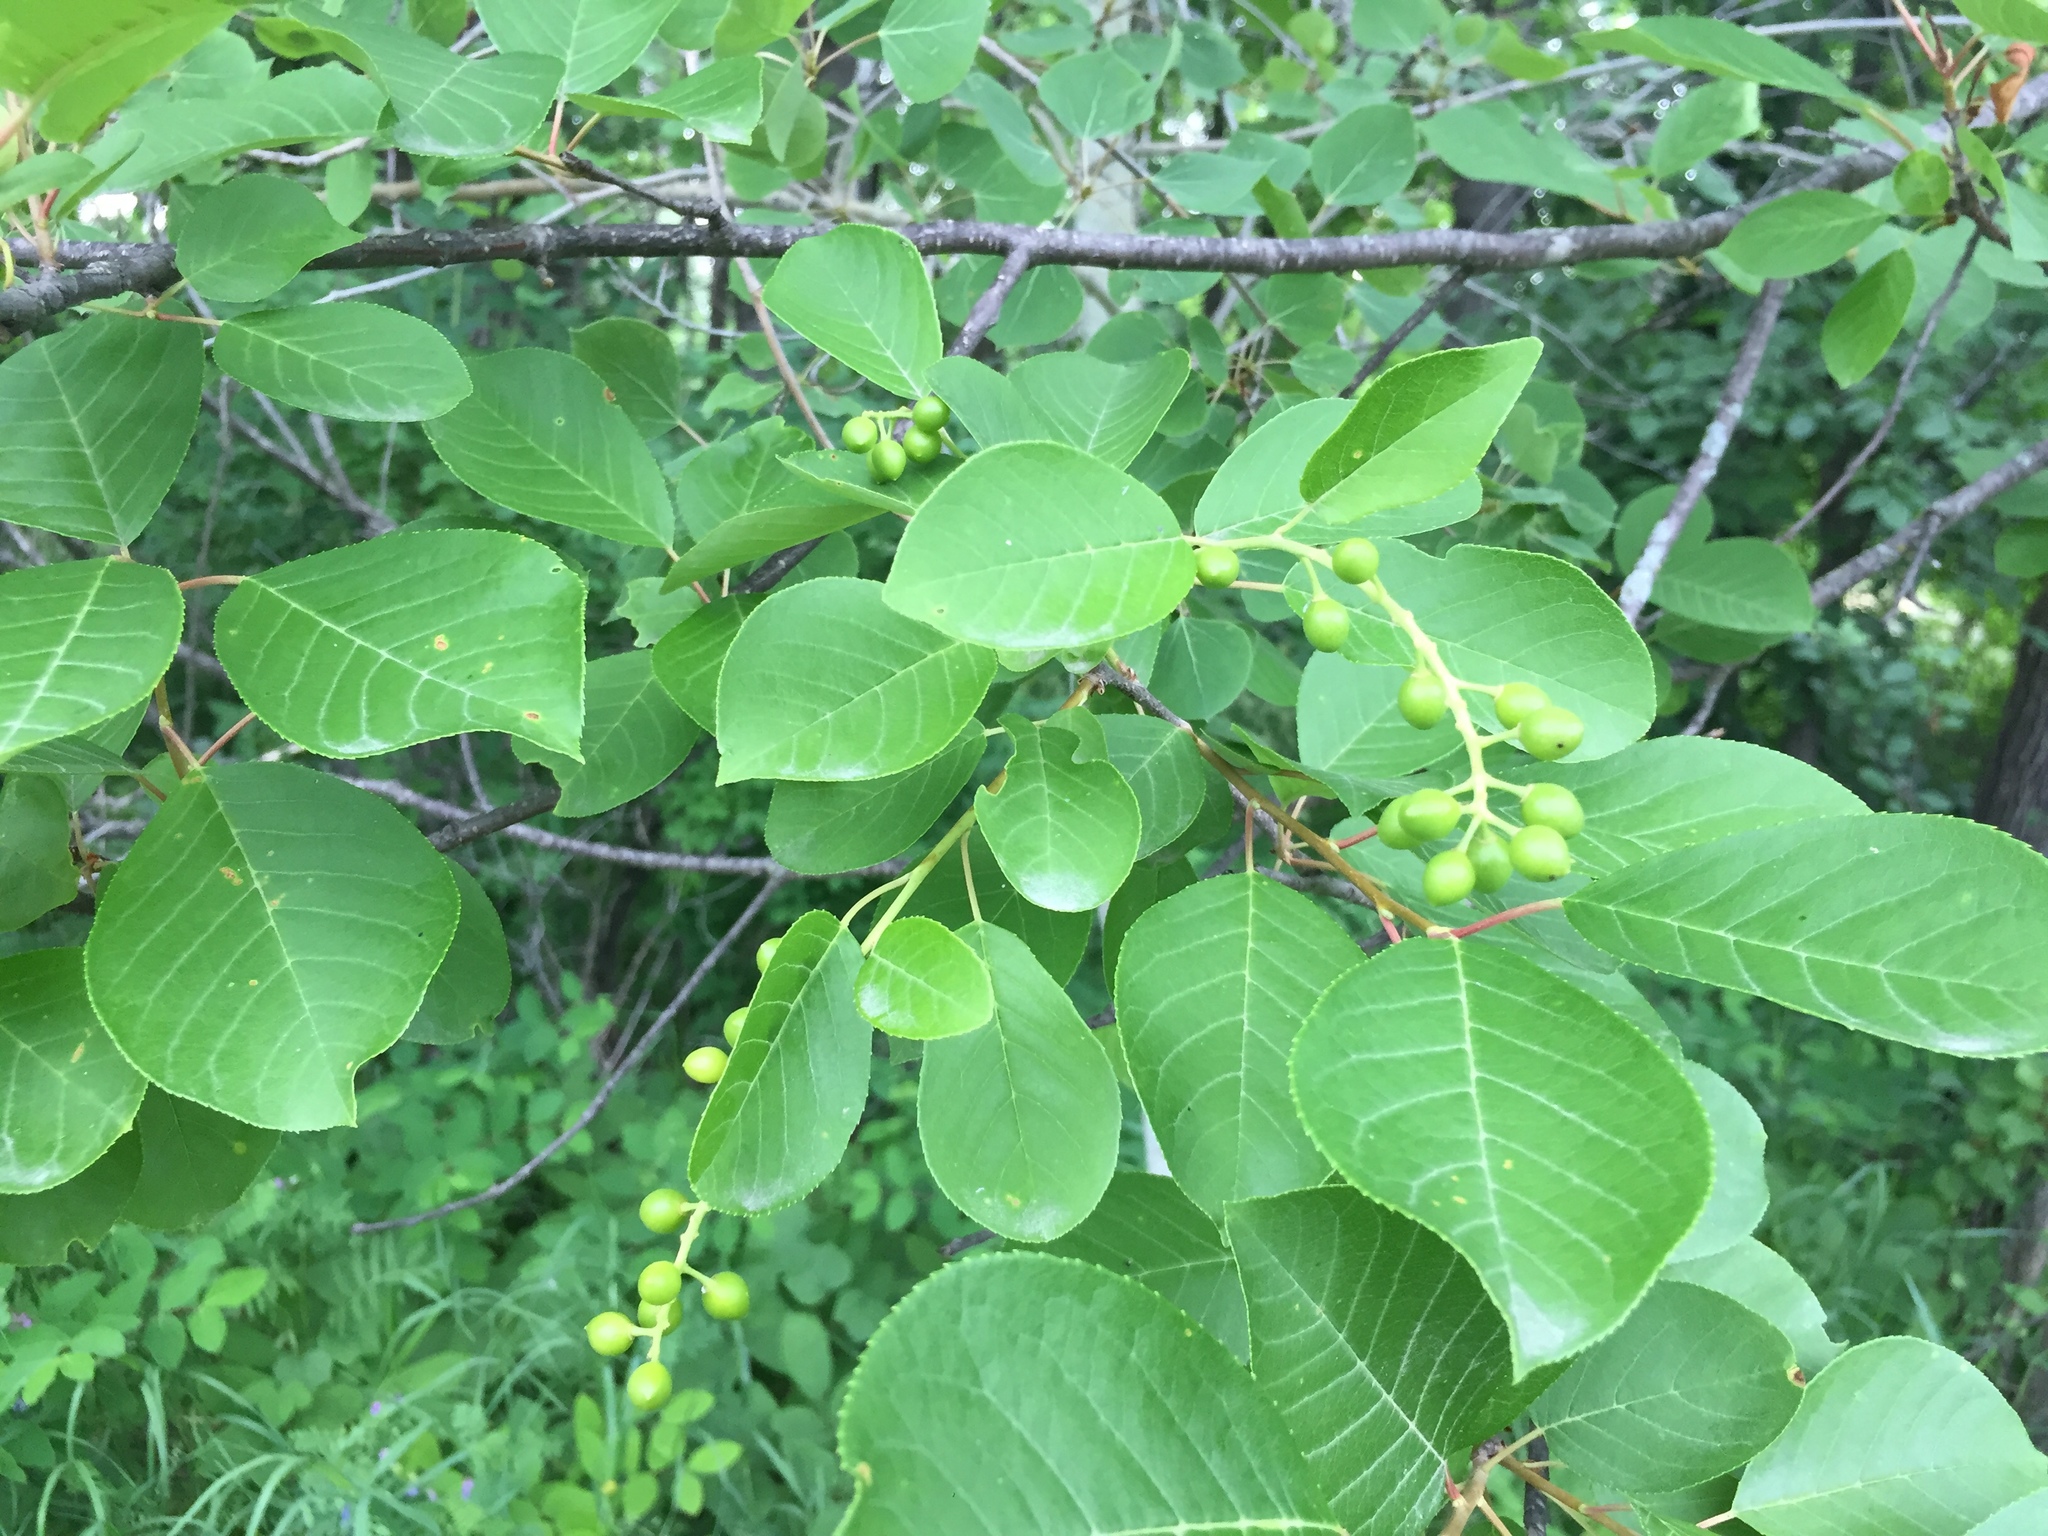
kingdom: Plantae
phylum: Tracheophyta
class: Magnoliopsida
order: Rosales
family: Rosaceae
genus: Prunus
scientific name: Prunus virginiana
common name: Chokecherry
